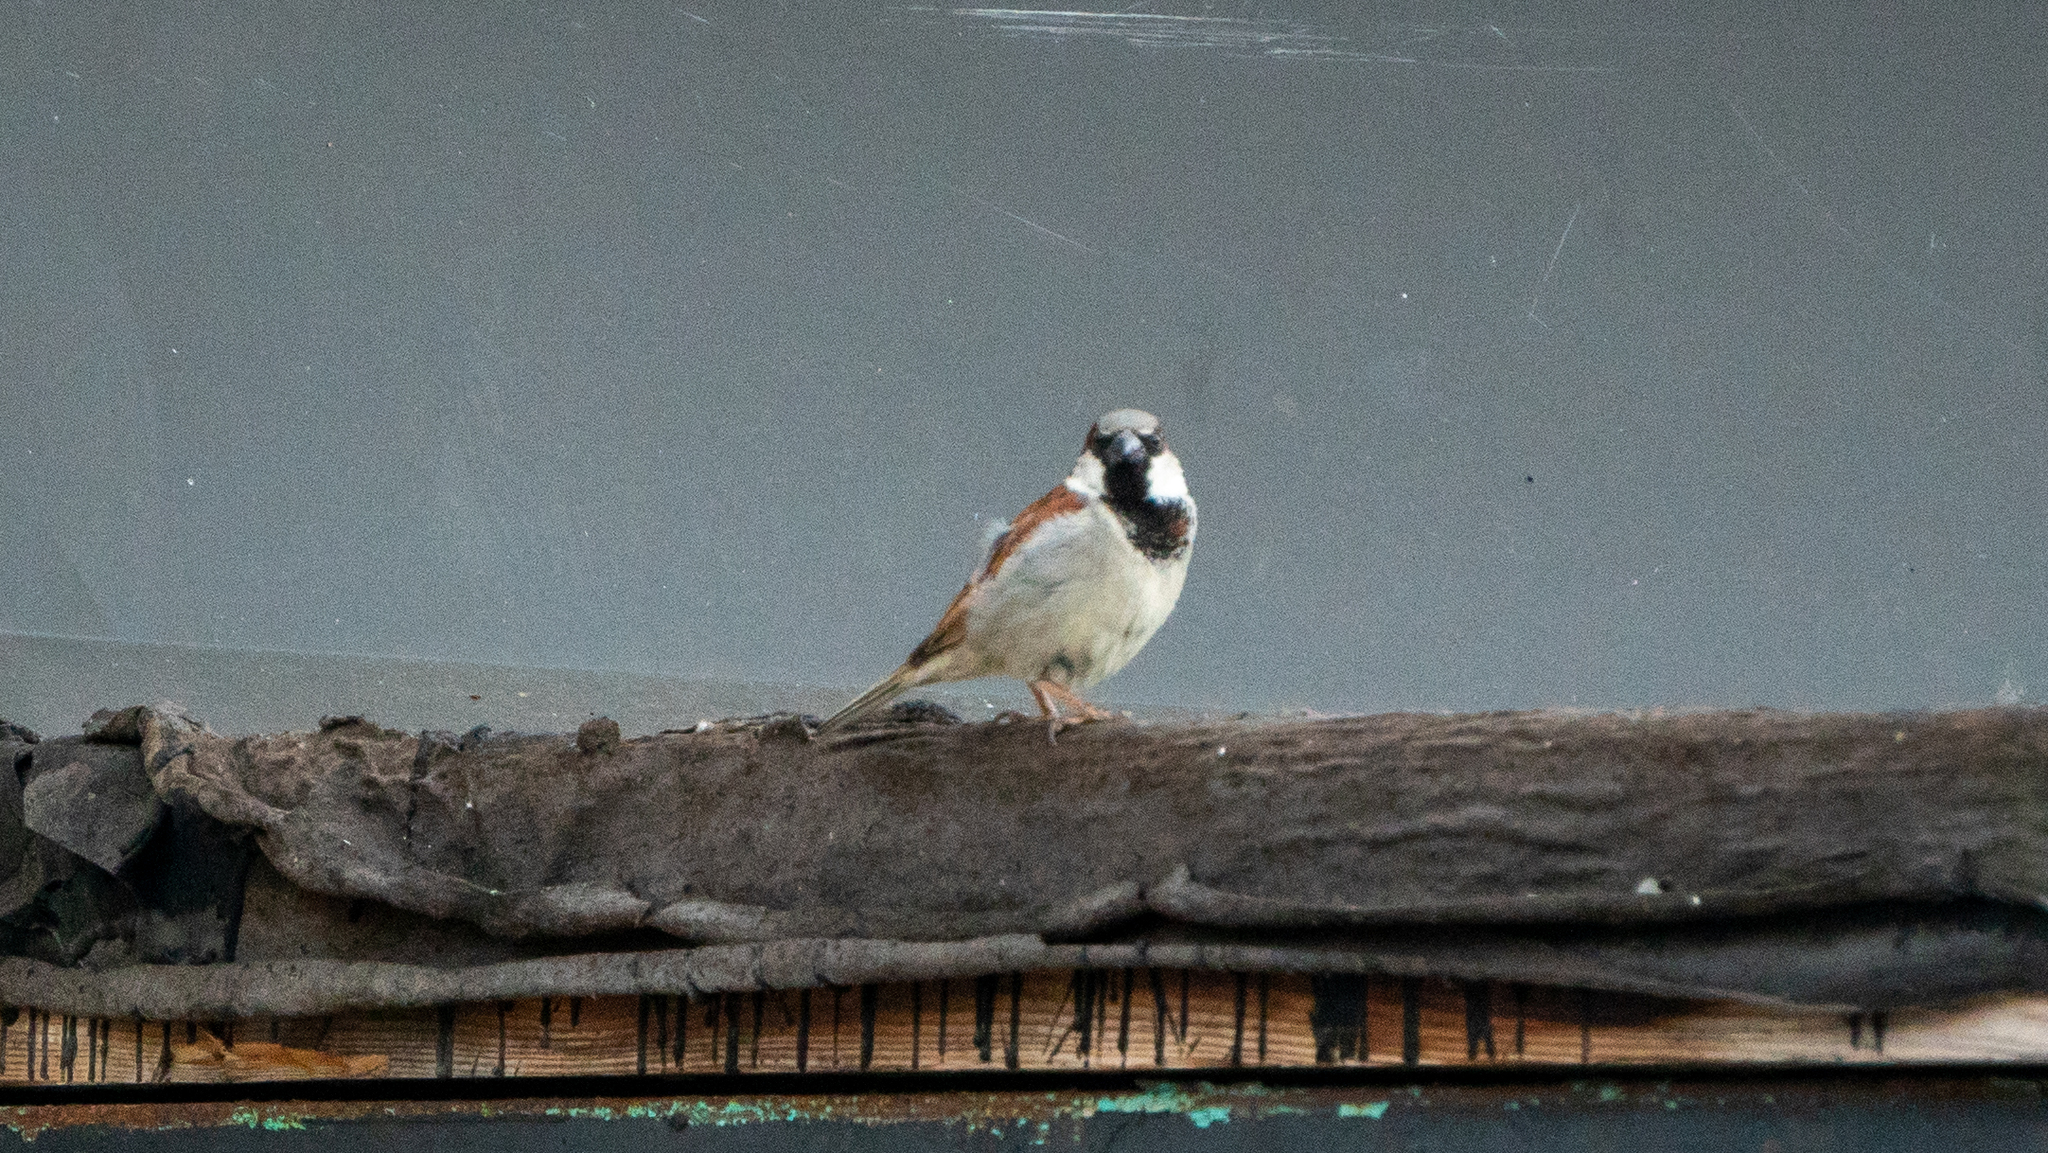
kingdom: Animalia
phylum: Chordata
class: Aves
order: Passeriformes
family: Passeridae
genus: Passer
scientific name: Passer domesticus
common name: House sparrow
